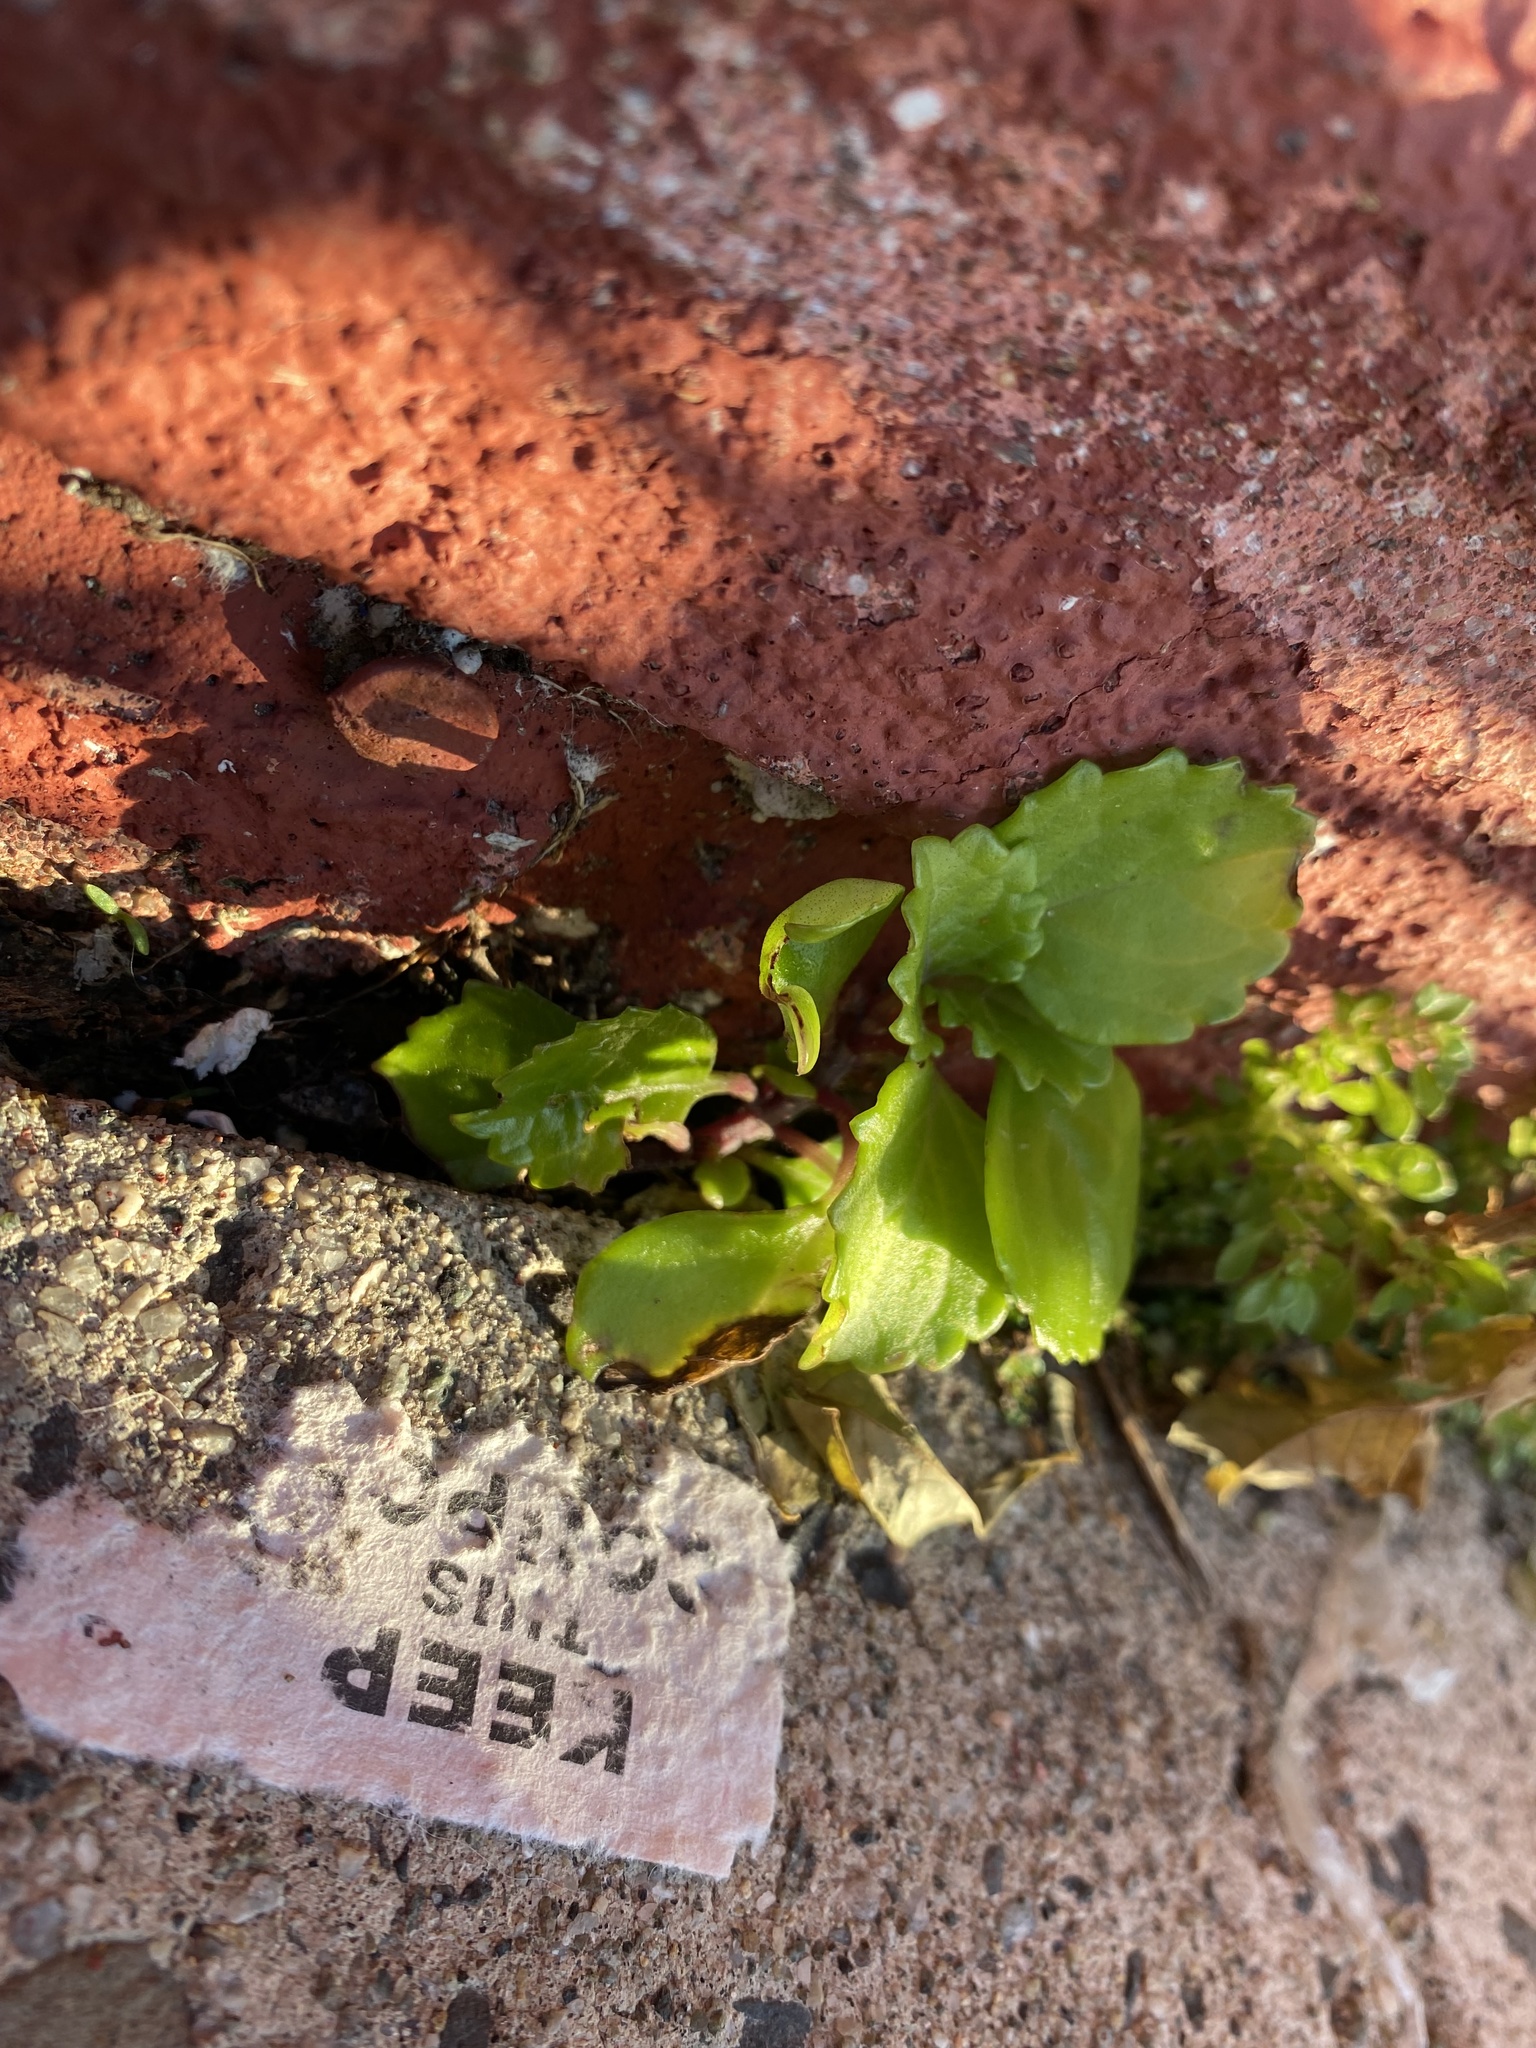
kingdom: Plantae
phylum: Tracheophyta
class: Magnoliopsida
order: Lamiales
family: Lamiaceae
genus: Plectranthus
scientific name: Plectranthus verticillatus
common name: Whorled plectranthus
